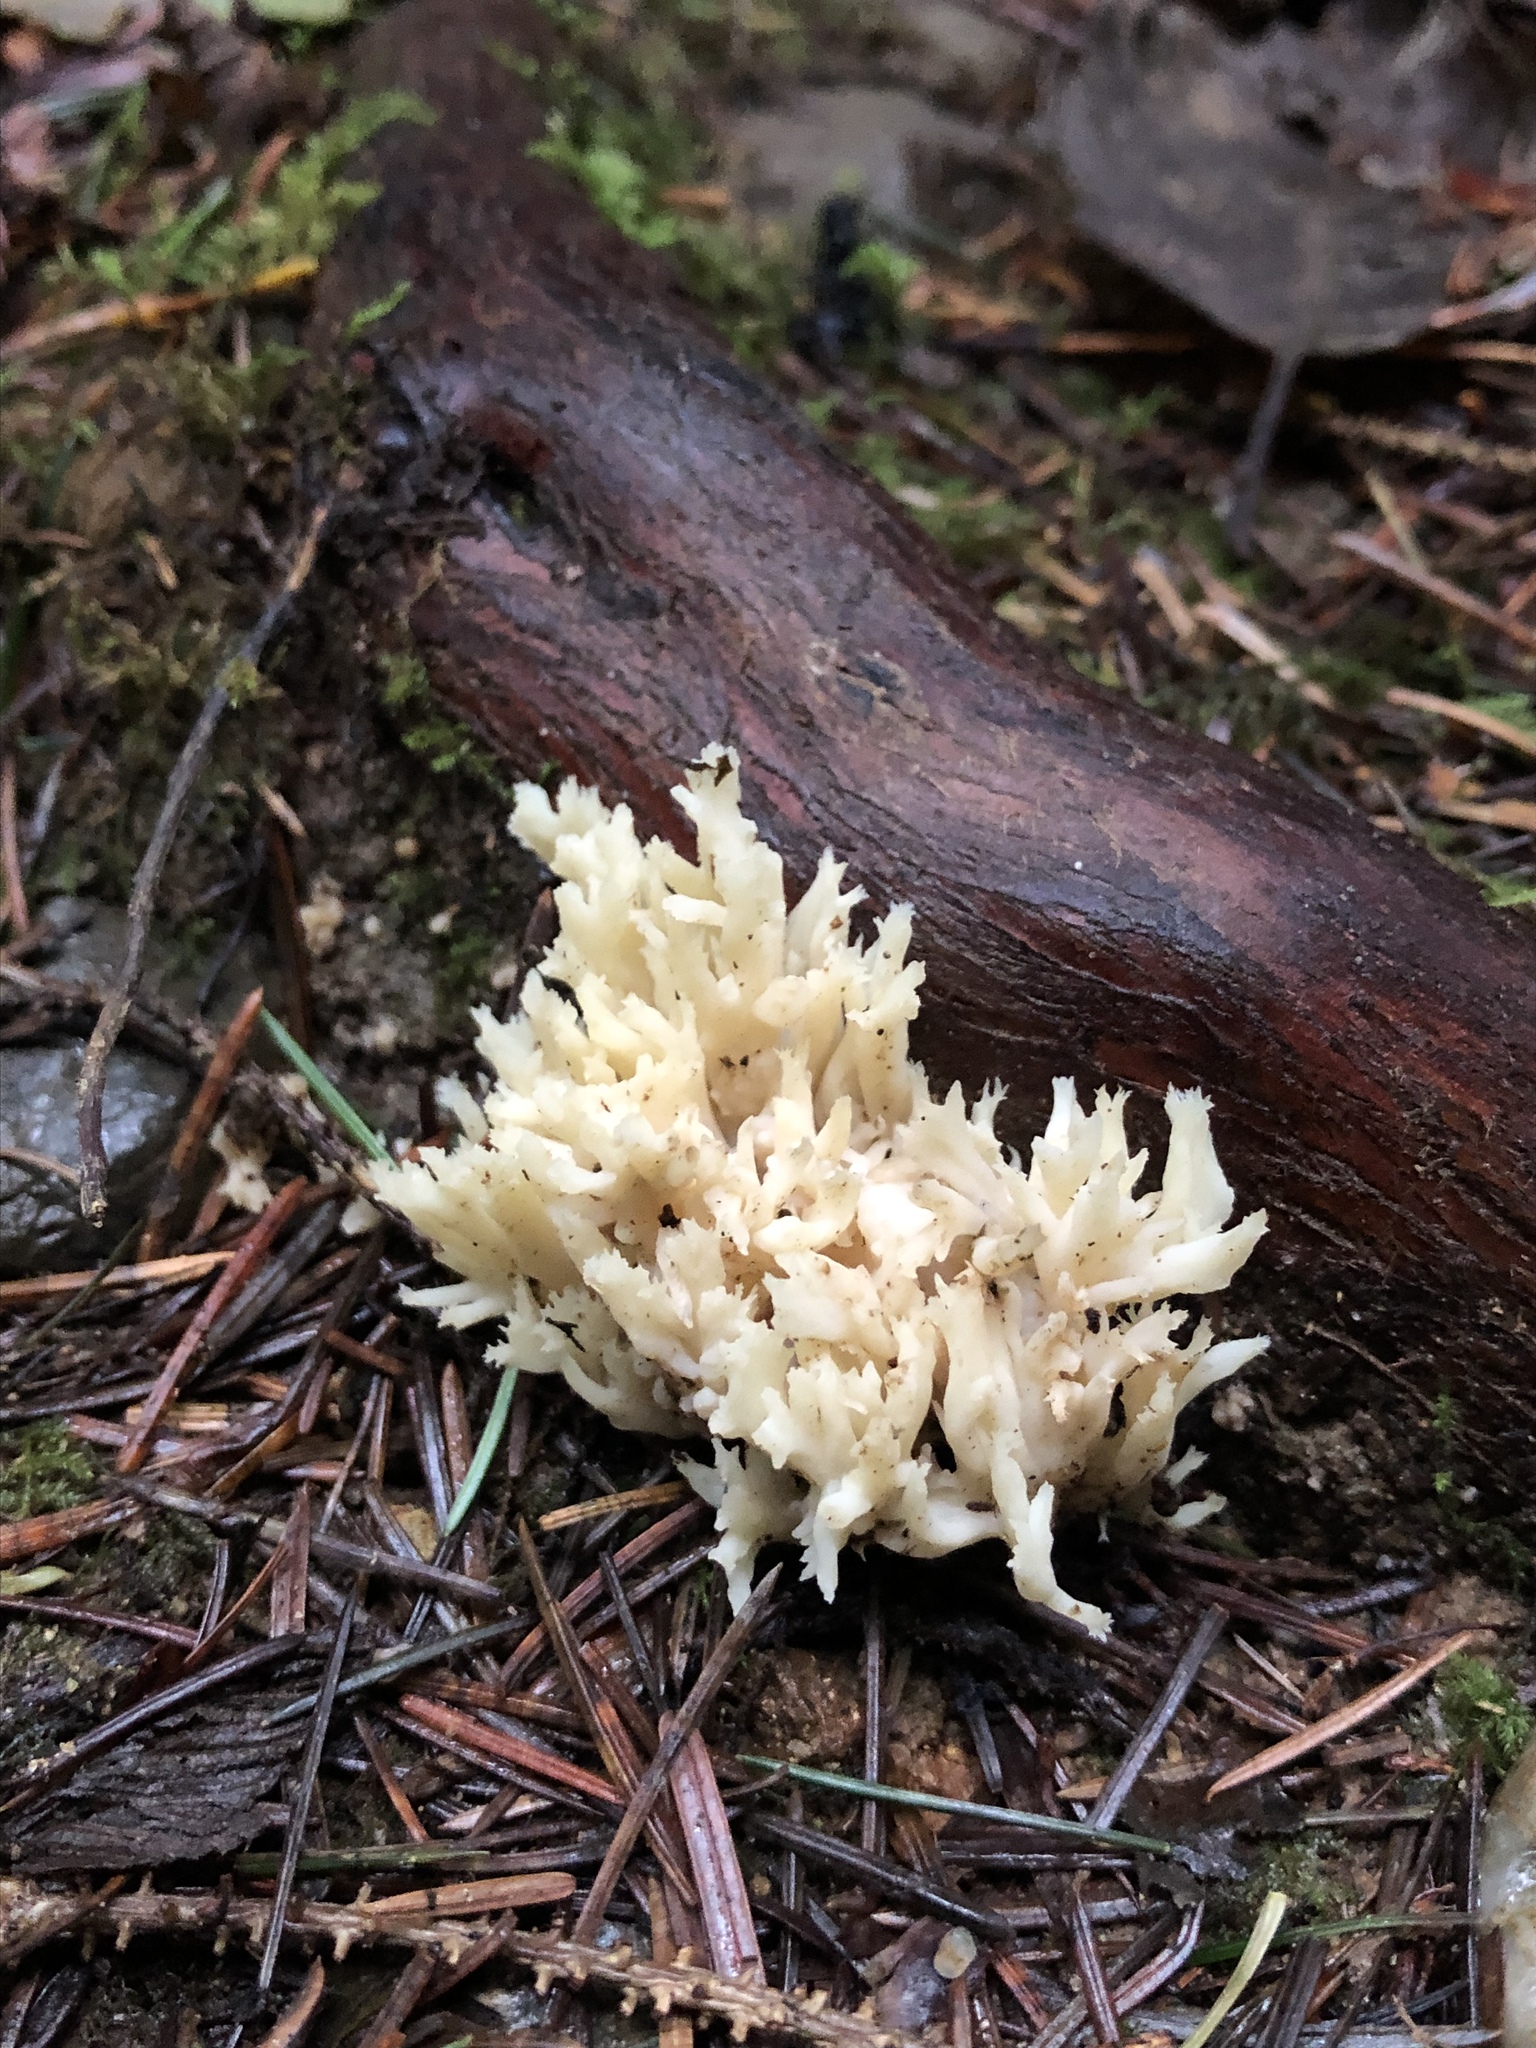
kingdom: Fungi
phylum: Basidiomycota
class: Agaricomycetes
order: Cantharellales
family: Hydnaceae
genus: Clavulina
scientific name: Clavulina coralloides
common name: Crested coral
